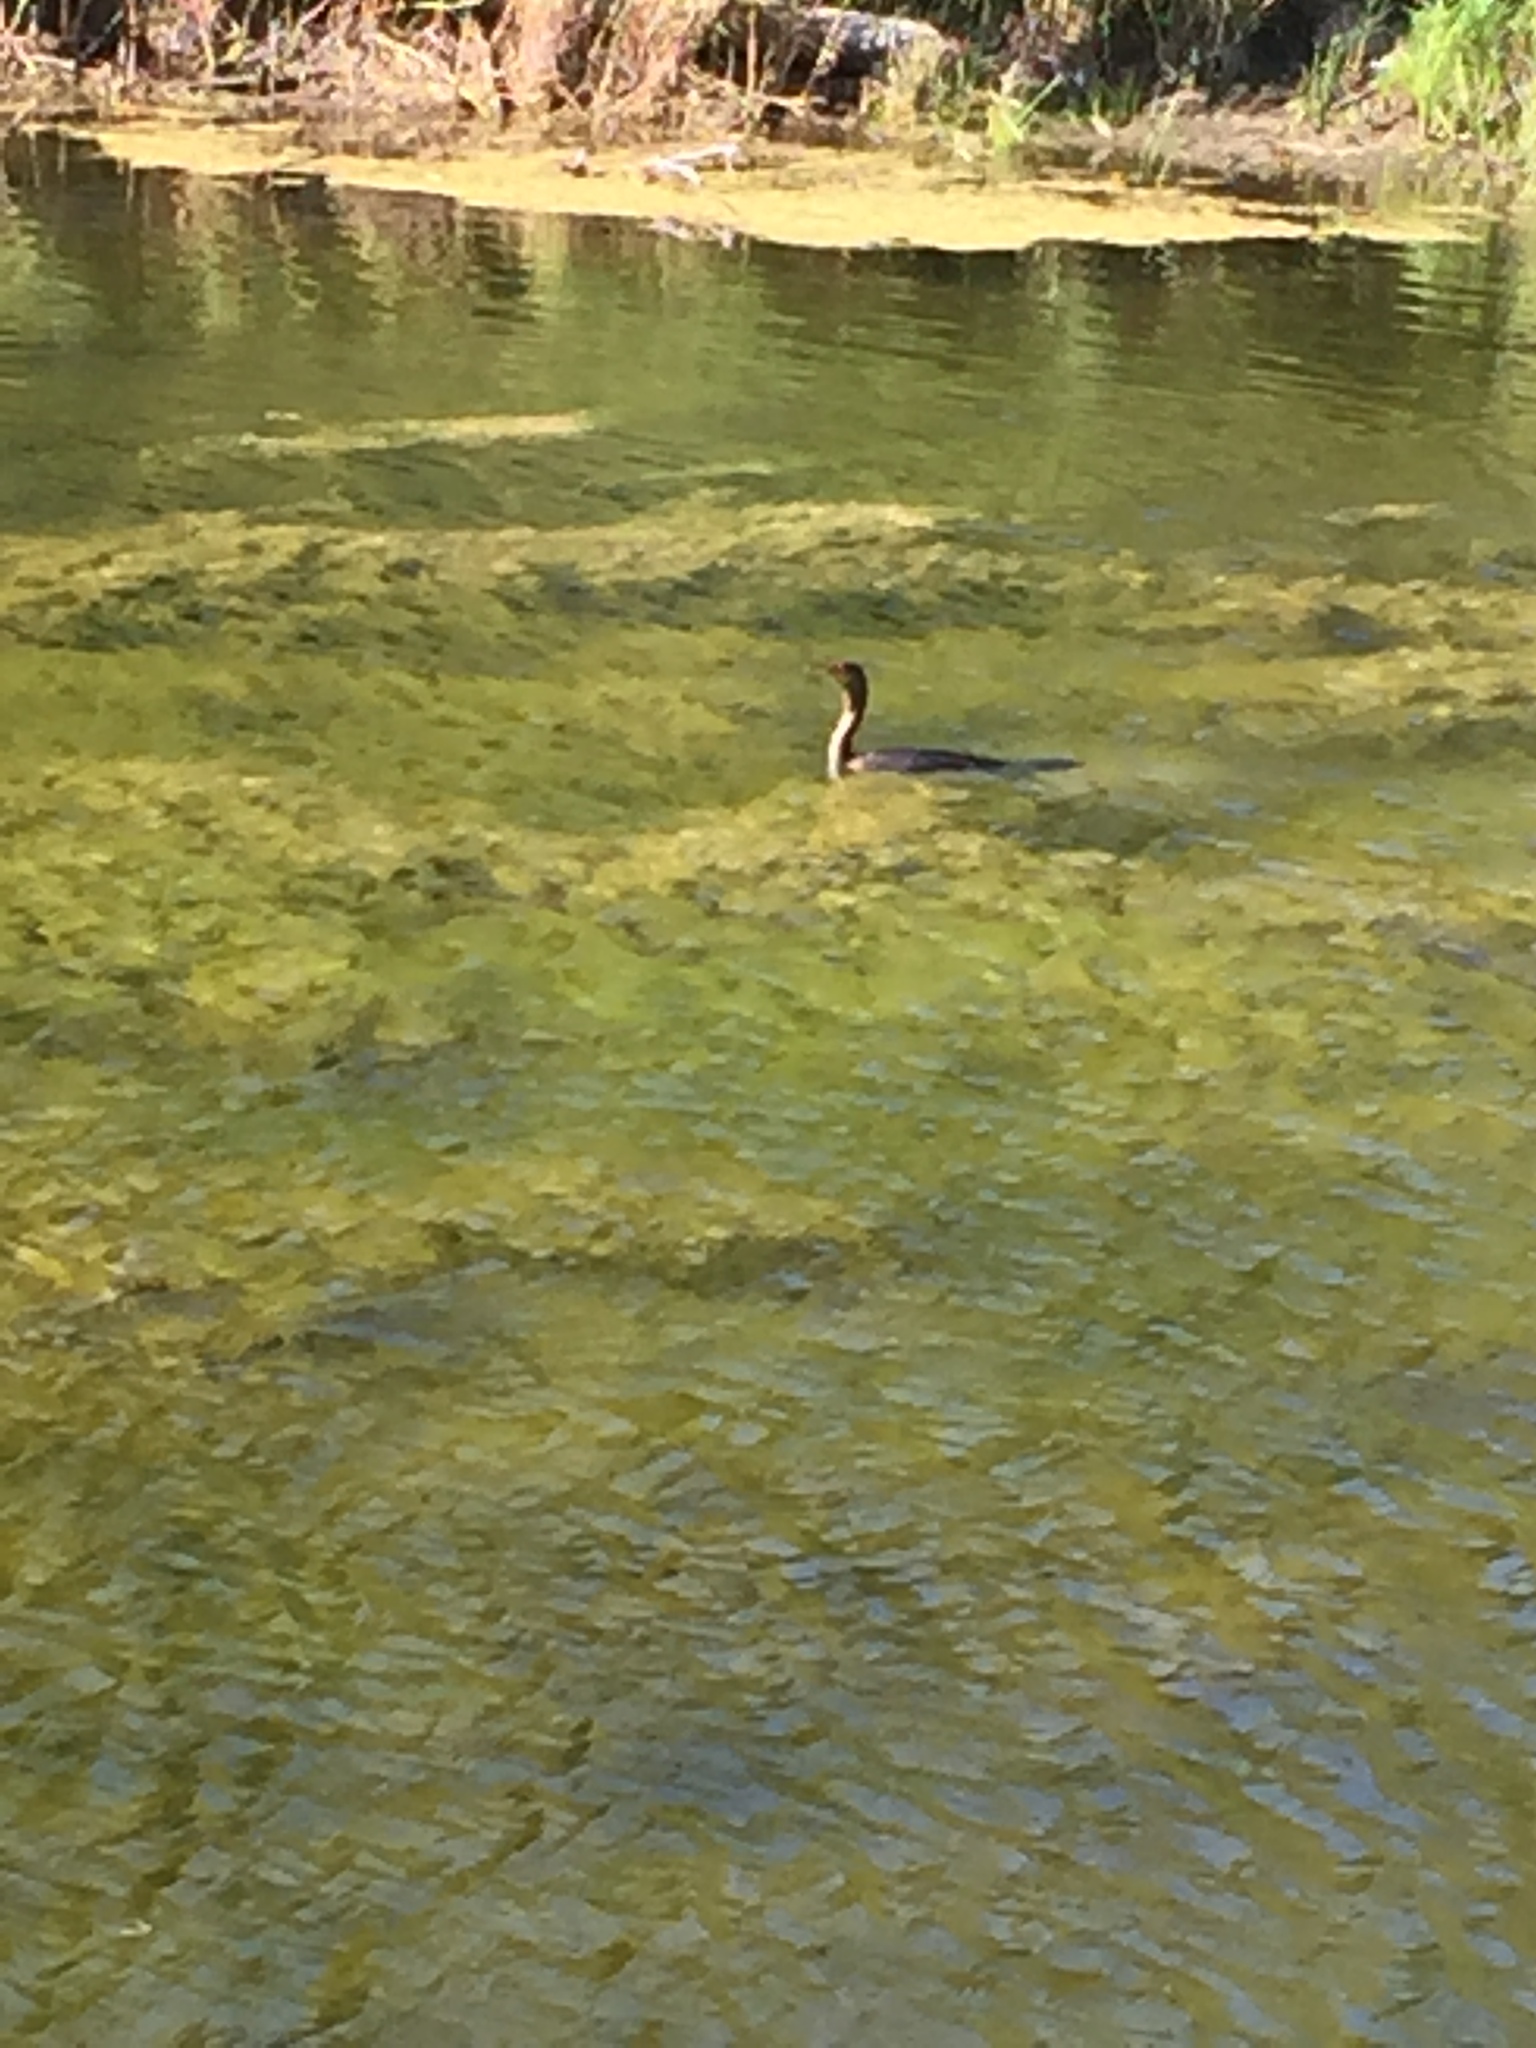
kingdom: Animalia
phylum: Chordata
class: Aves
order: Suliformes
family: Phalacrocoracidae
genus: Phalacrocorax
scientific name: Phalacrocorax auritus
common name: Double-crested cormorant
